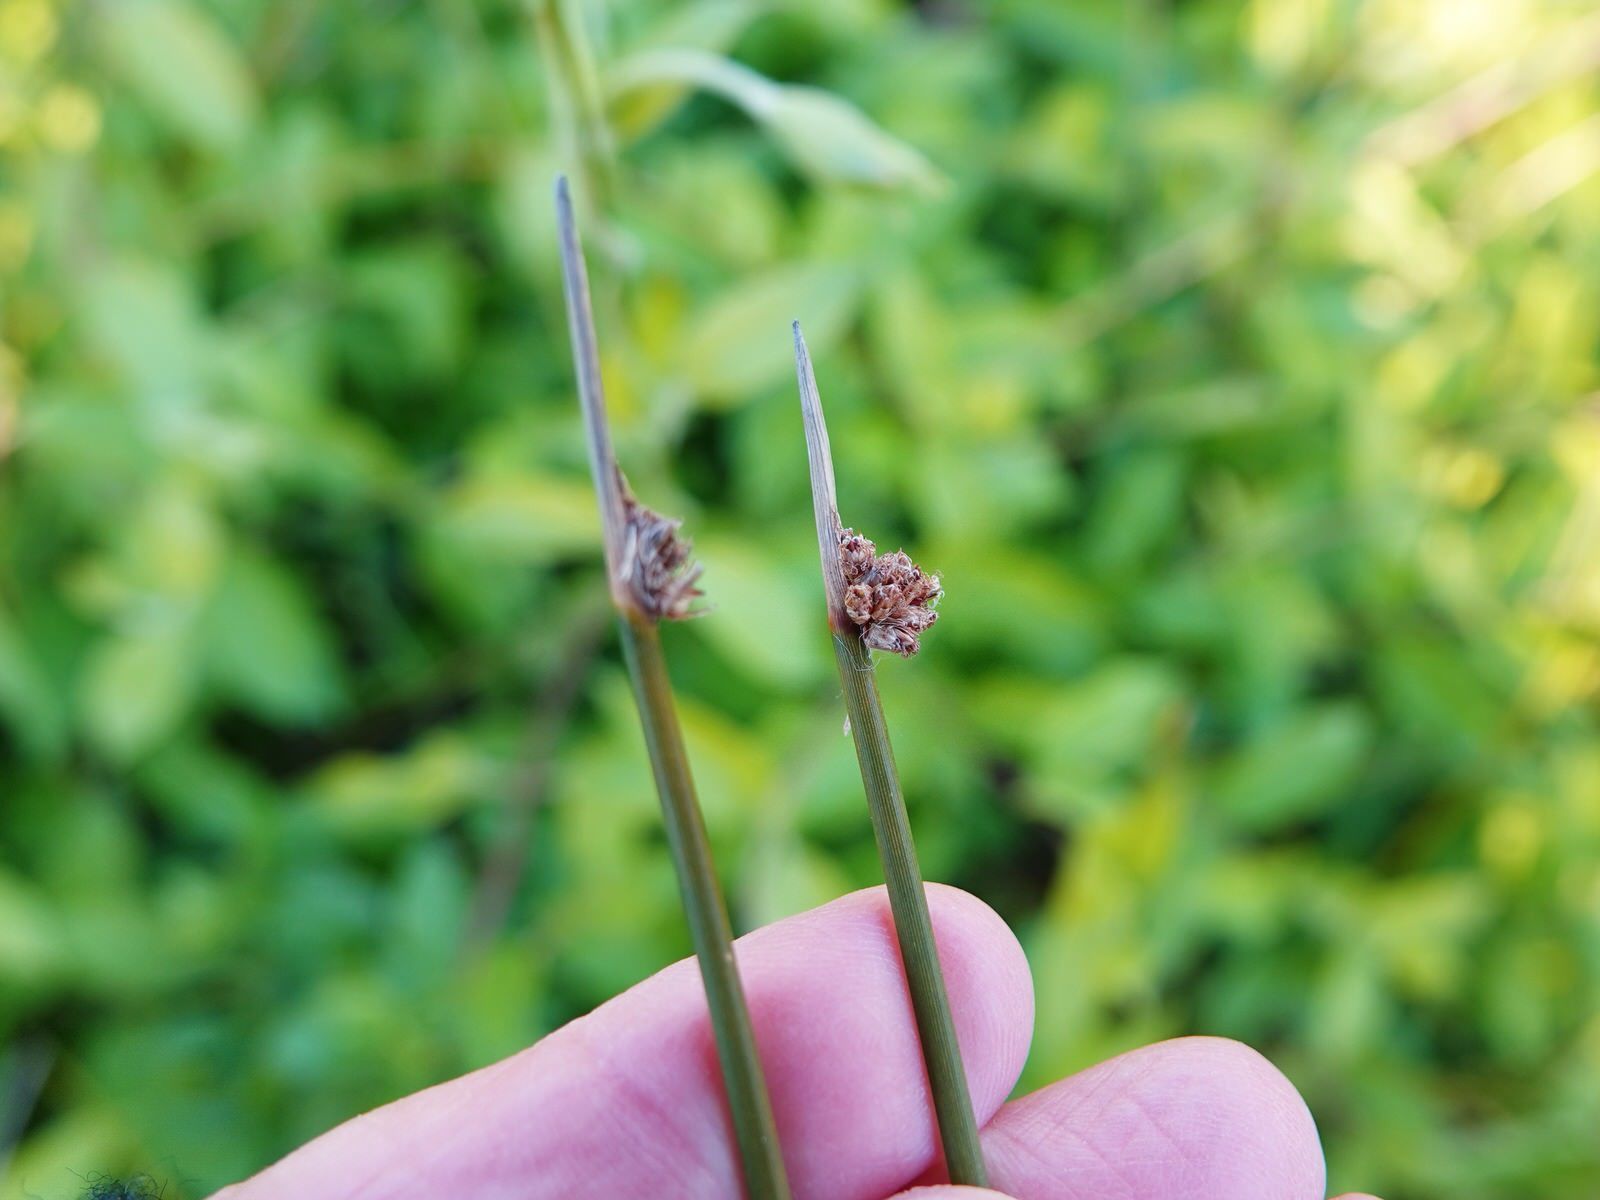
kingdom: Plantae
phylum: Tracheophyta
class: Liliopsida
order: Poales
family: Cyperaceae
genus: Ficinia
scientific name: Ficinia nodosa
